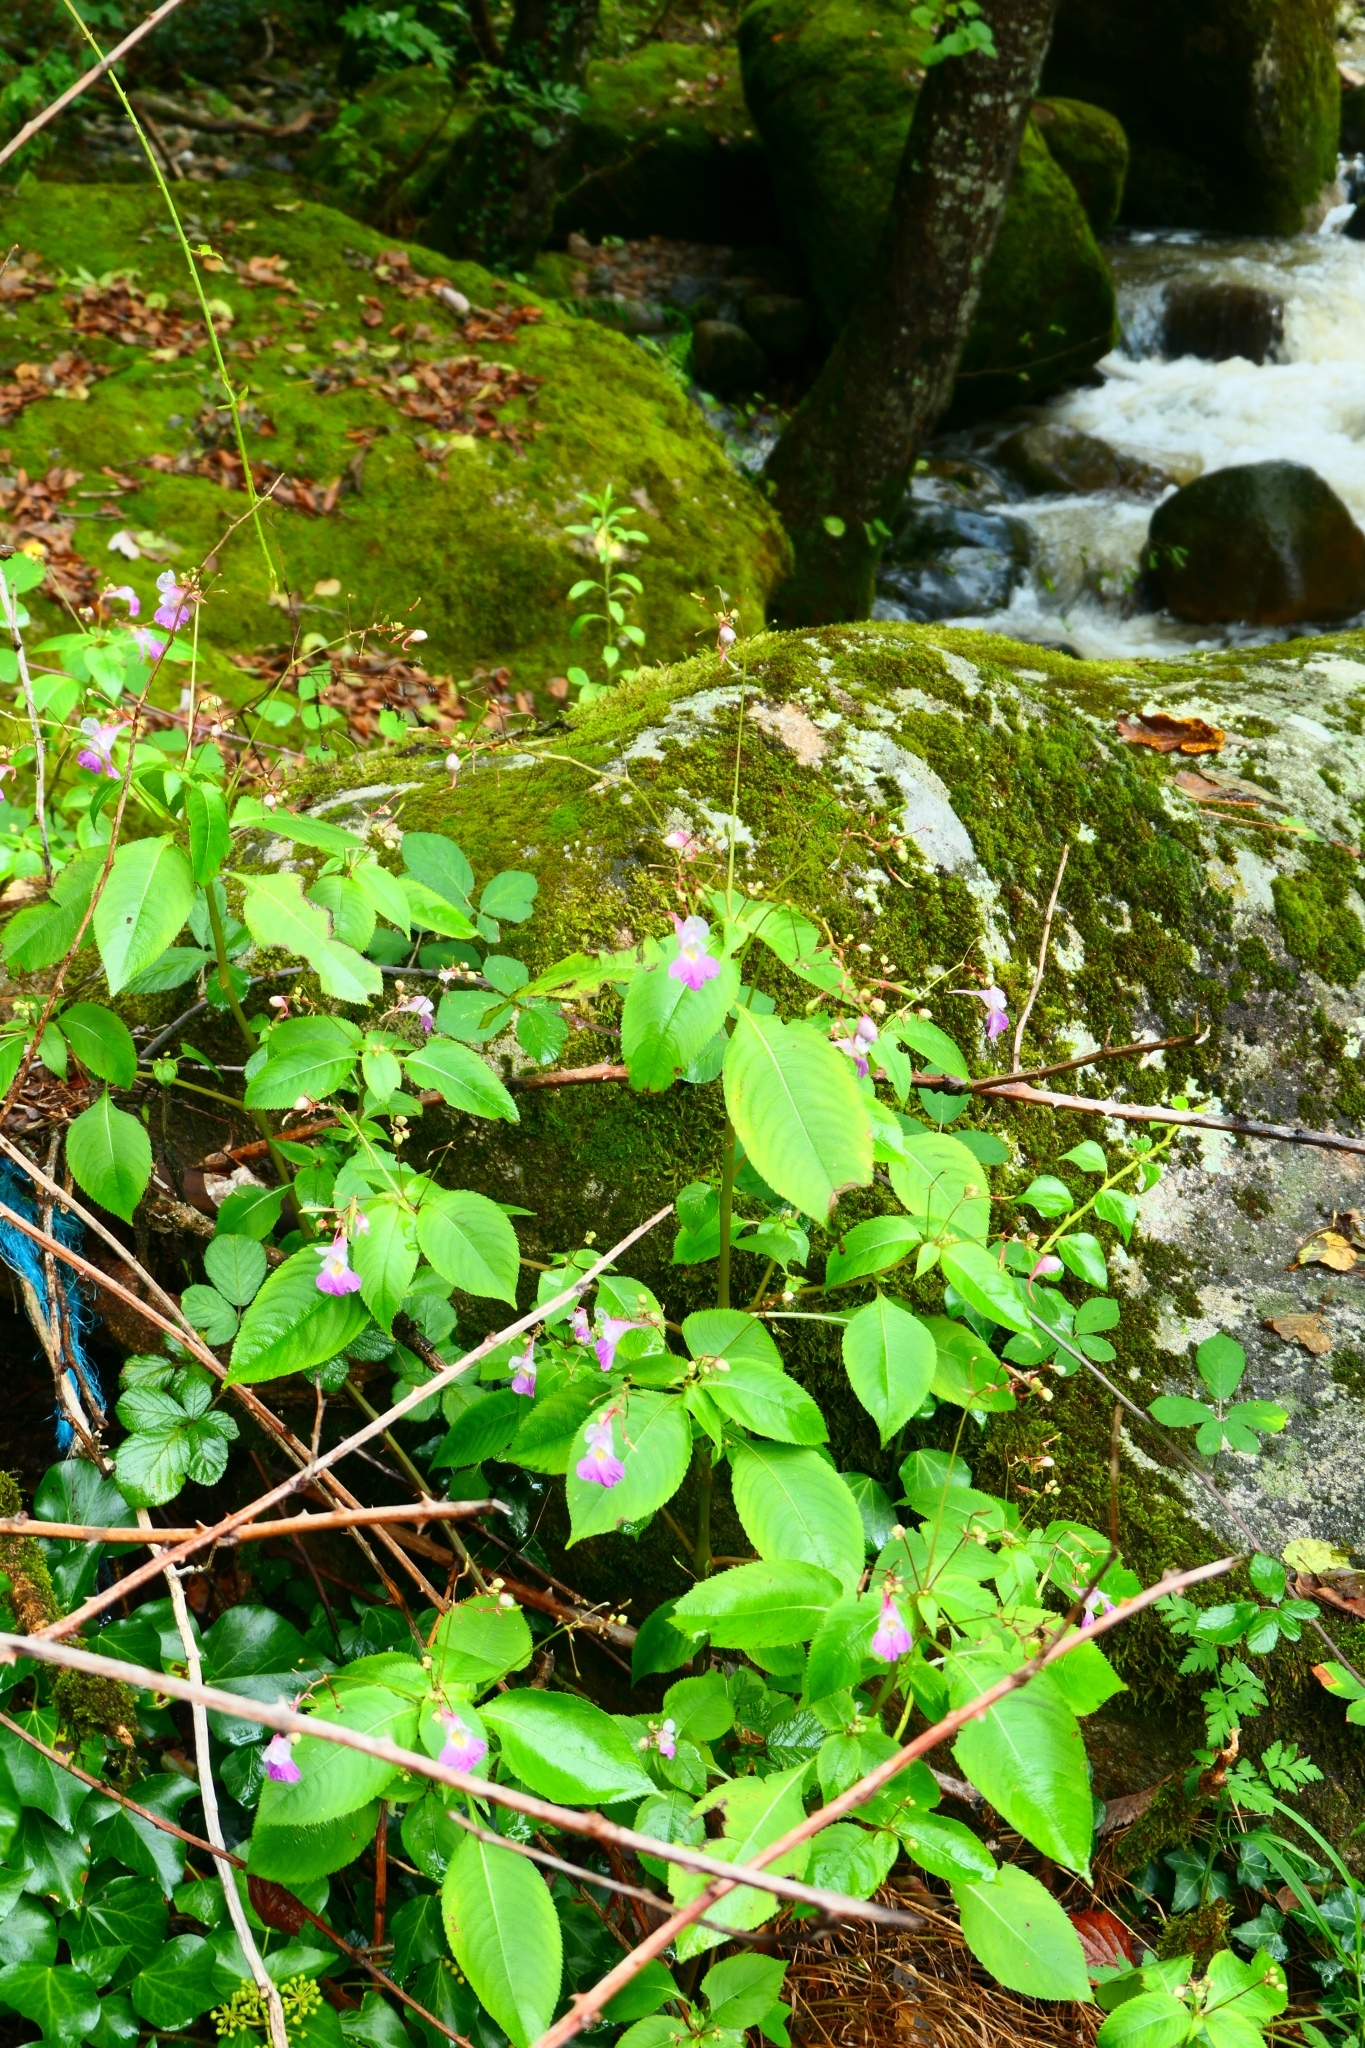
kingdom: Plantae
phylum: Tracheophyta
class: Magnoliopsida
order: Ericales
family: Balsaminaceae
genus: Impatiens
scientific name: Impatiens balfourii
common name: Balfour's touch-me-not
